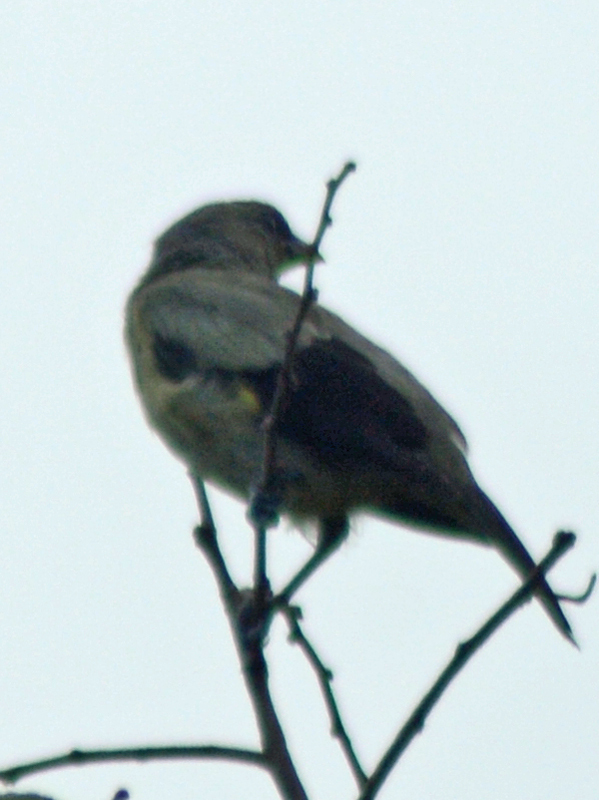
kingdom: Animalia
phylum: Chordata
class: Aves
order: Passeriformes
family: Thraupidae
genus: Thraupis
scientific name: Thraupis abbas
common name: Yellow-winged tanager
